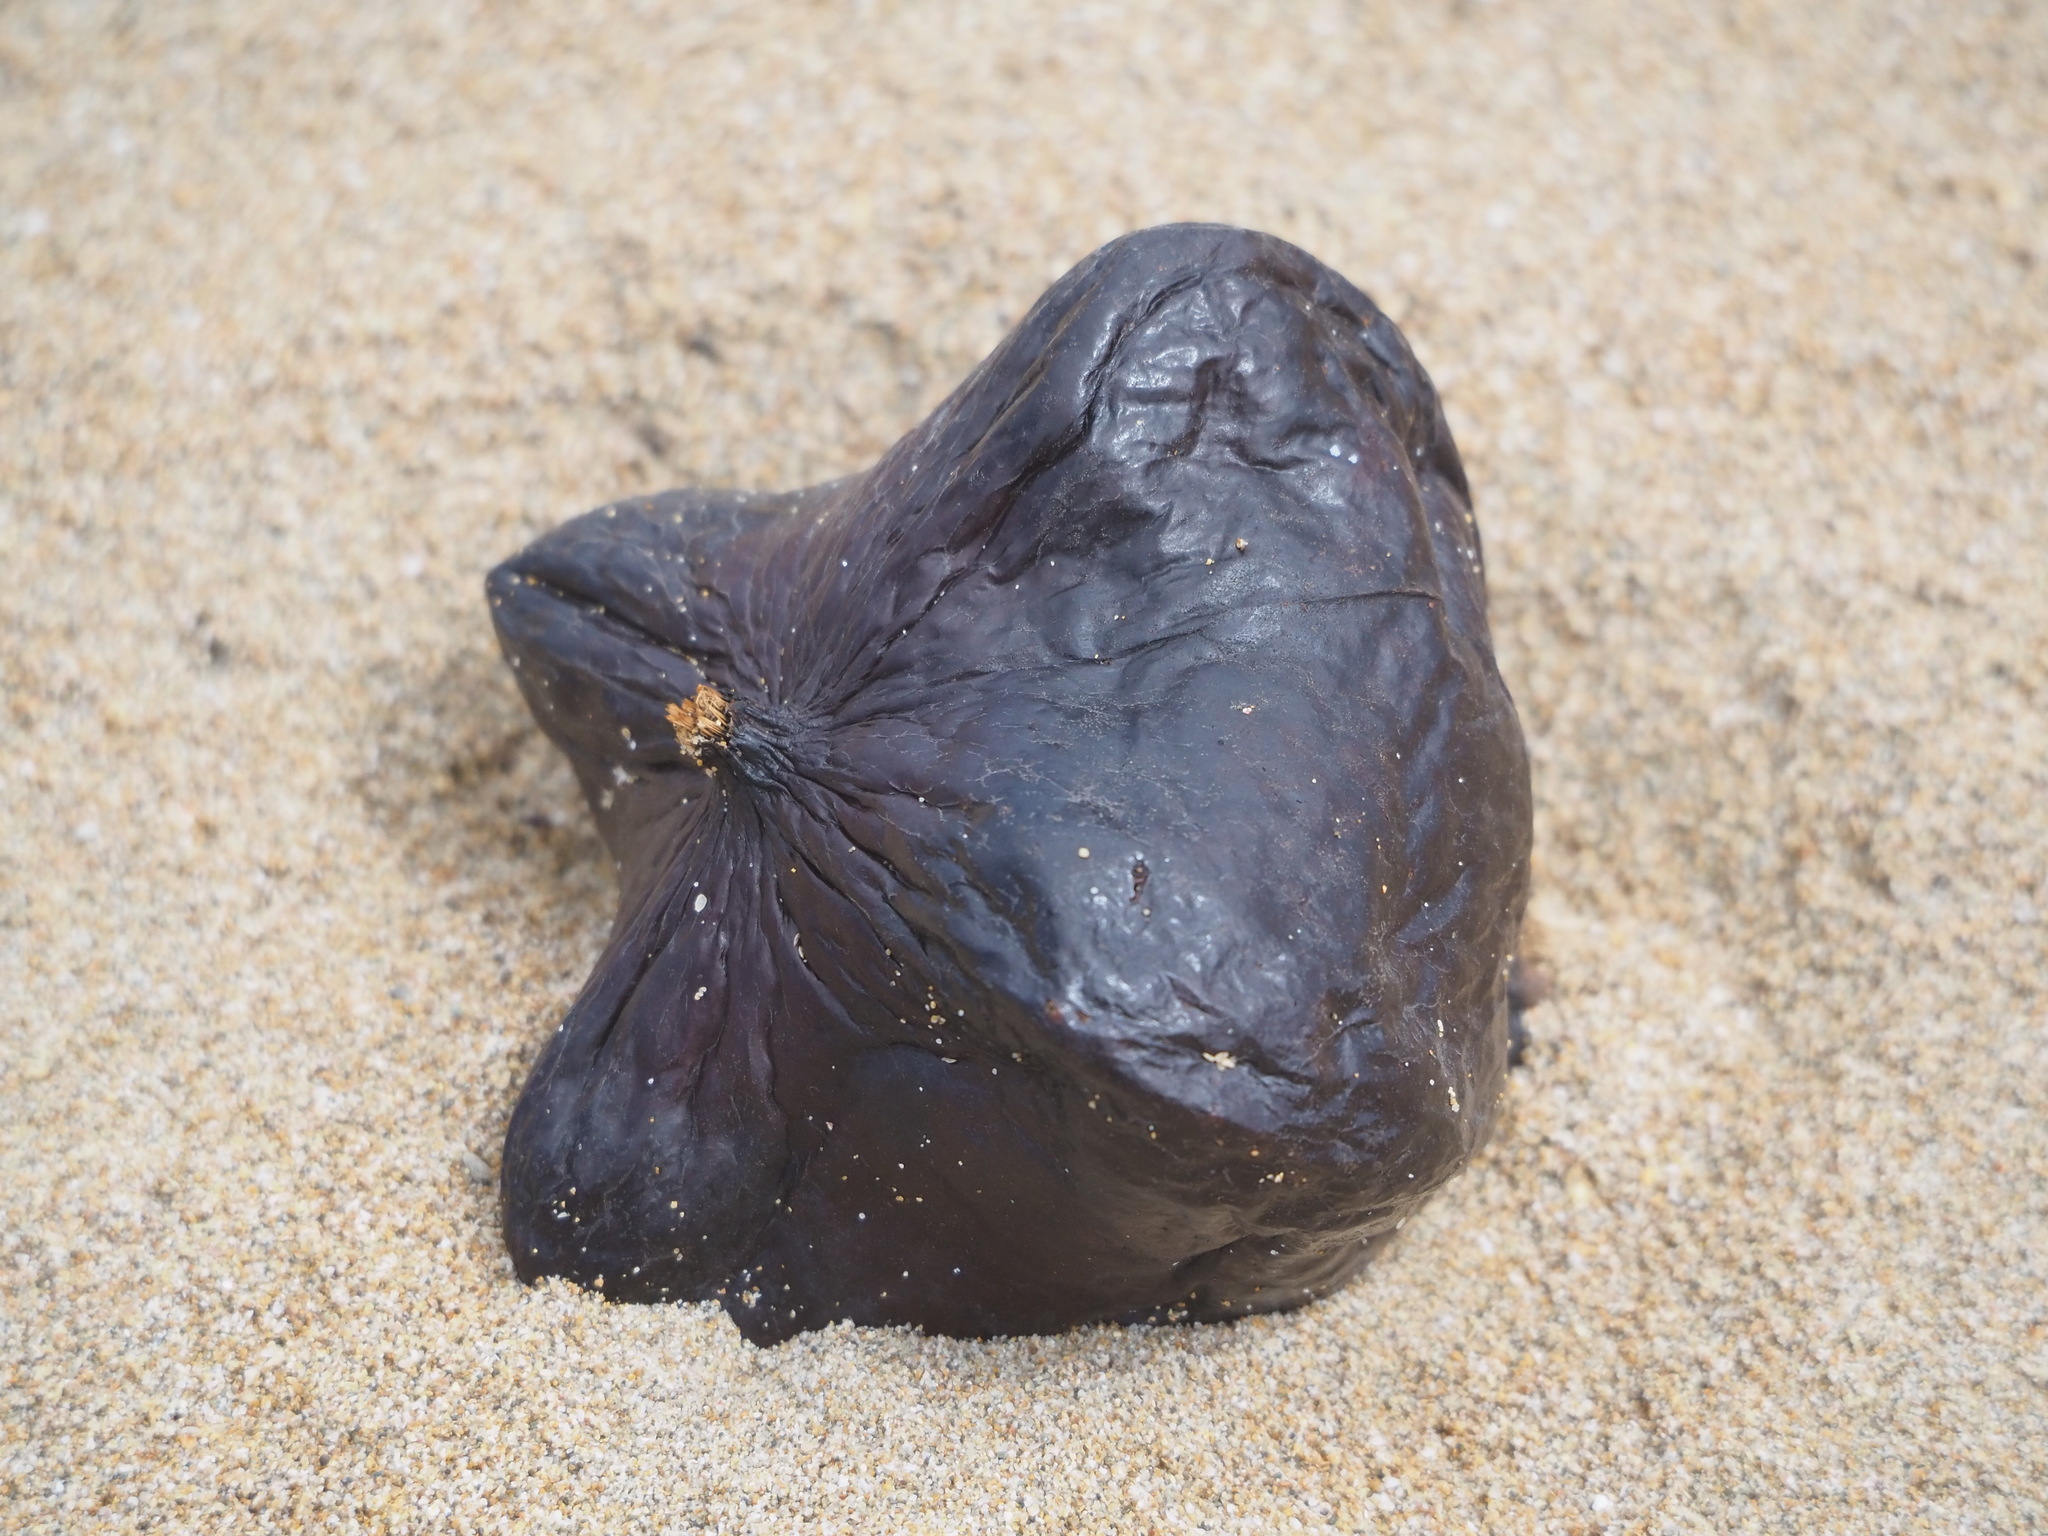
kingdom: Plantae
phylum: Tracheophyta
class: Magnoliopsida
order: Ericales
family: Lecythidaceae
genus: Barringtonia
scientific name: Barringtonia asiatica
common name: Mango-pine
